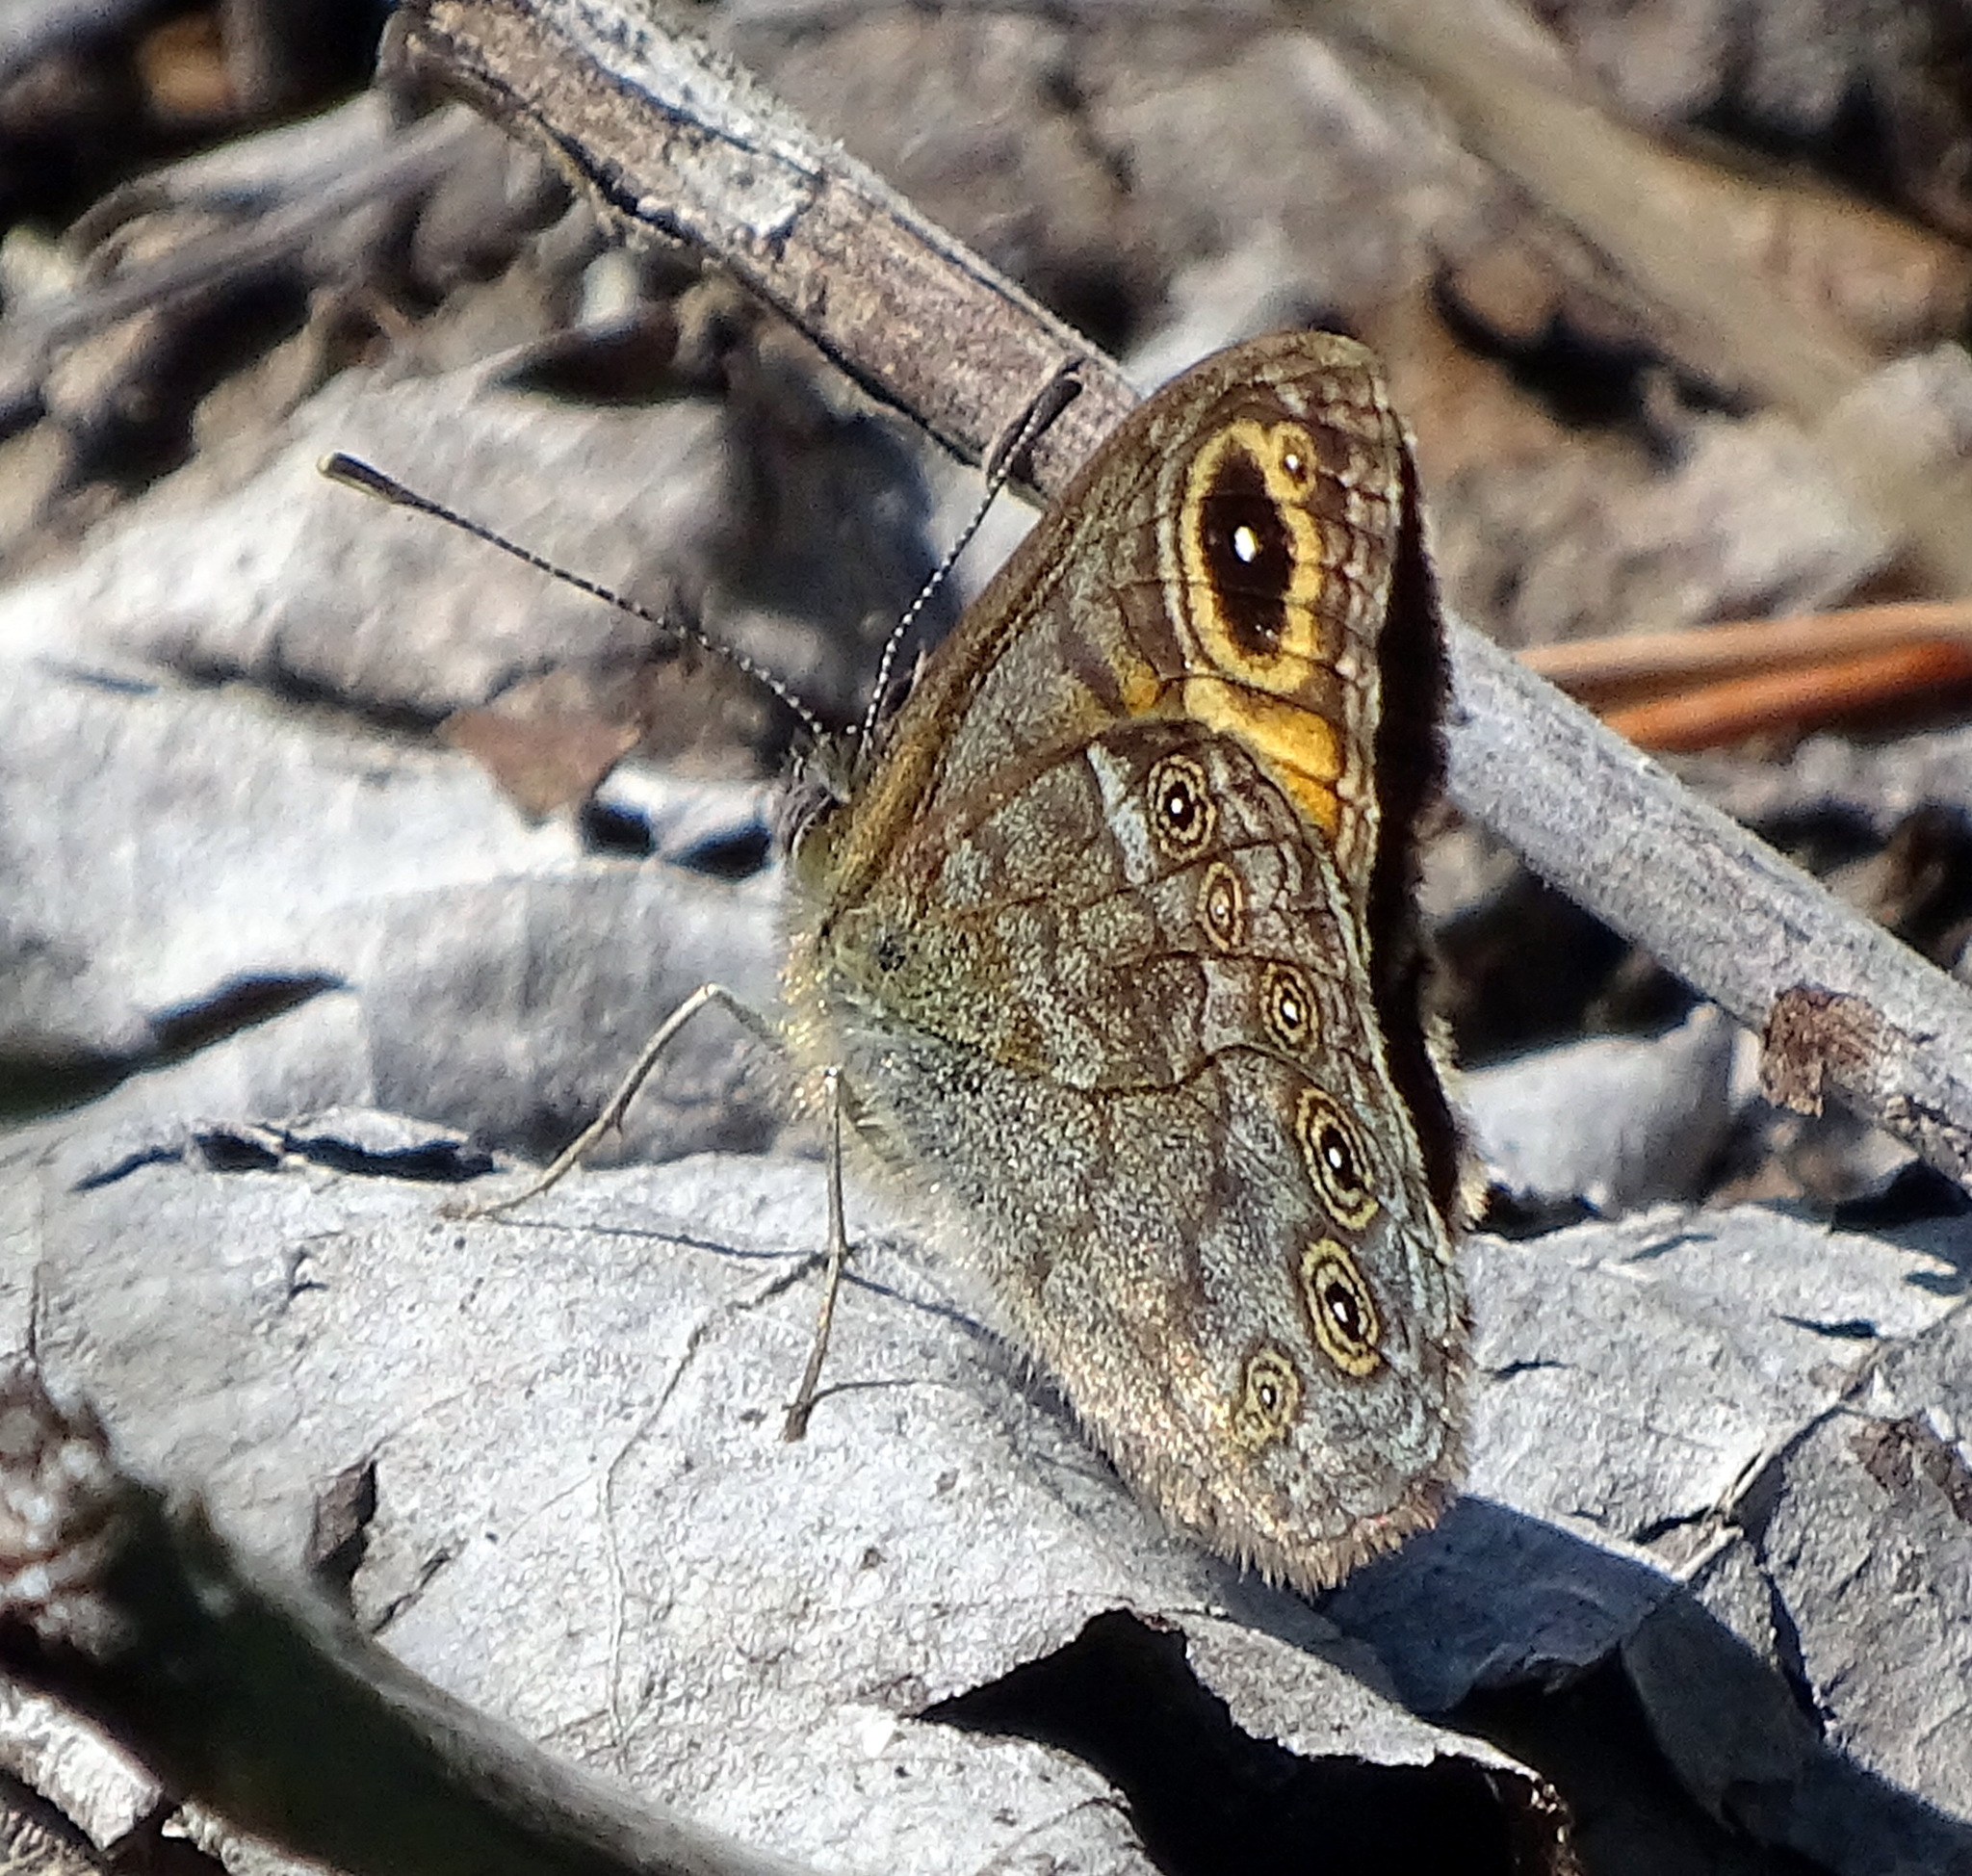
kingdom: Animalia
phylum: Arthropoda
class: Insecta
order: Lepidoptera
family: Nymphalidae
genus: Pararge
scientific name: Pararge Lasiommata maera
